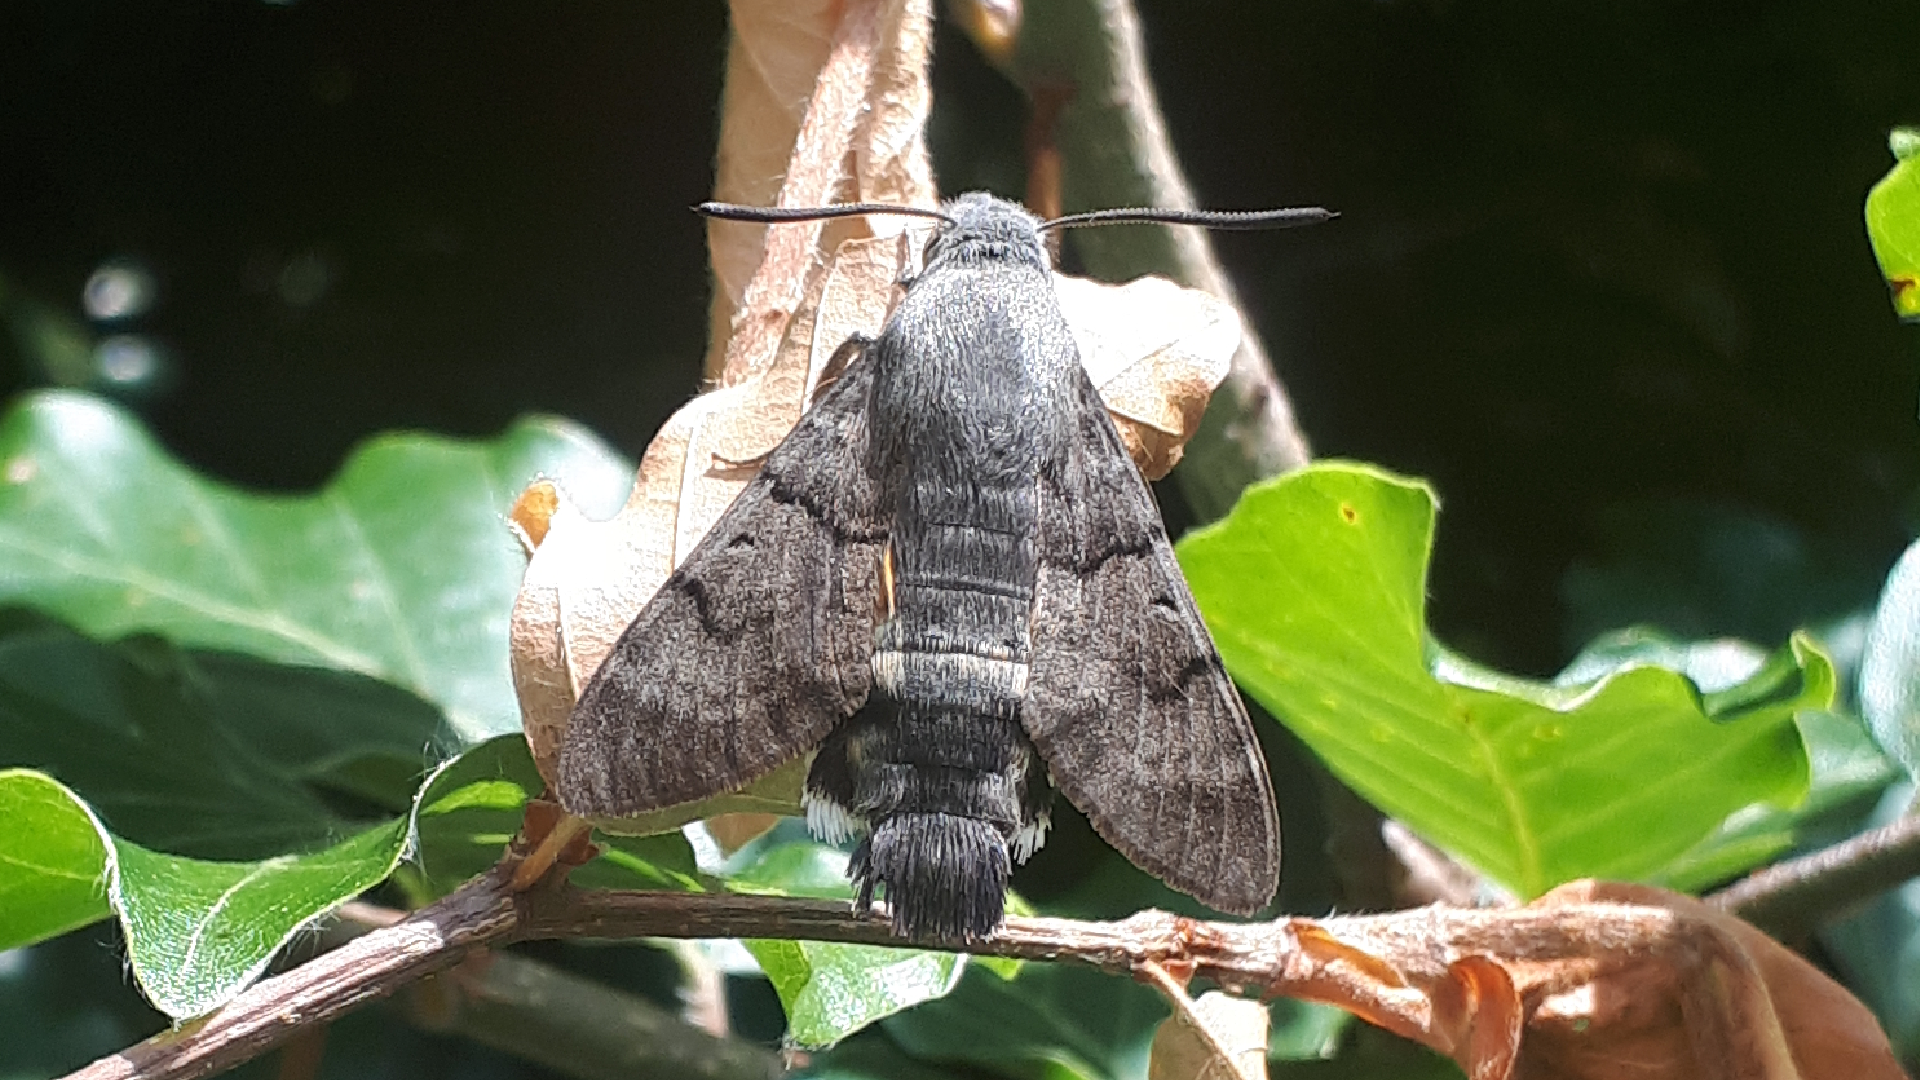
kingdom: Animalia
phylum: Arthropoda
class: Insecta
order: Lepidoptera
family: Sphingidae
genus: Macroglossum
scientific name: Macroglossum stellatarum
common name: Humming-bird hawk-moth
